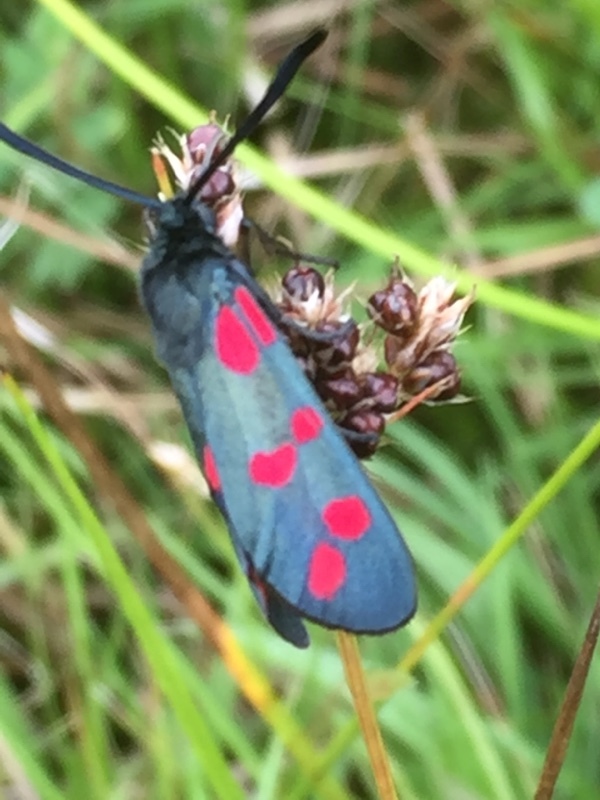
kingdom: Animalia
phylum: Arthropoda
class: Insecta
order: Lepidoptera
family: Zygaenidae
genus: Zygaena
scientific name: Zygaena filipendulae
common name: Six-spot burnet
